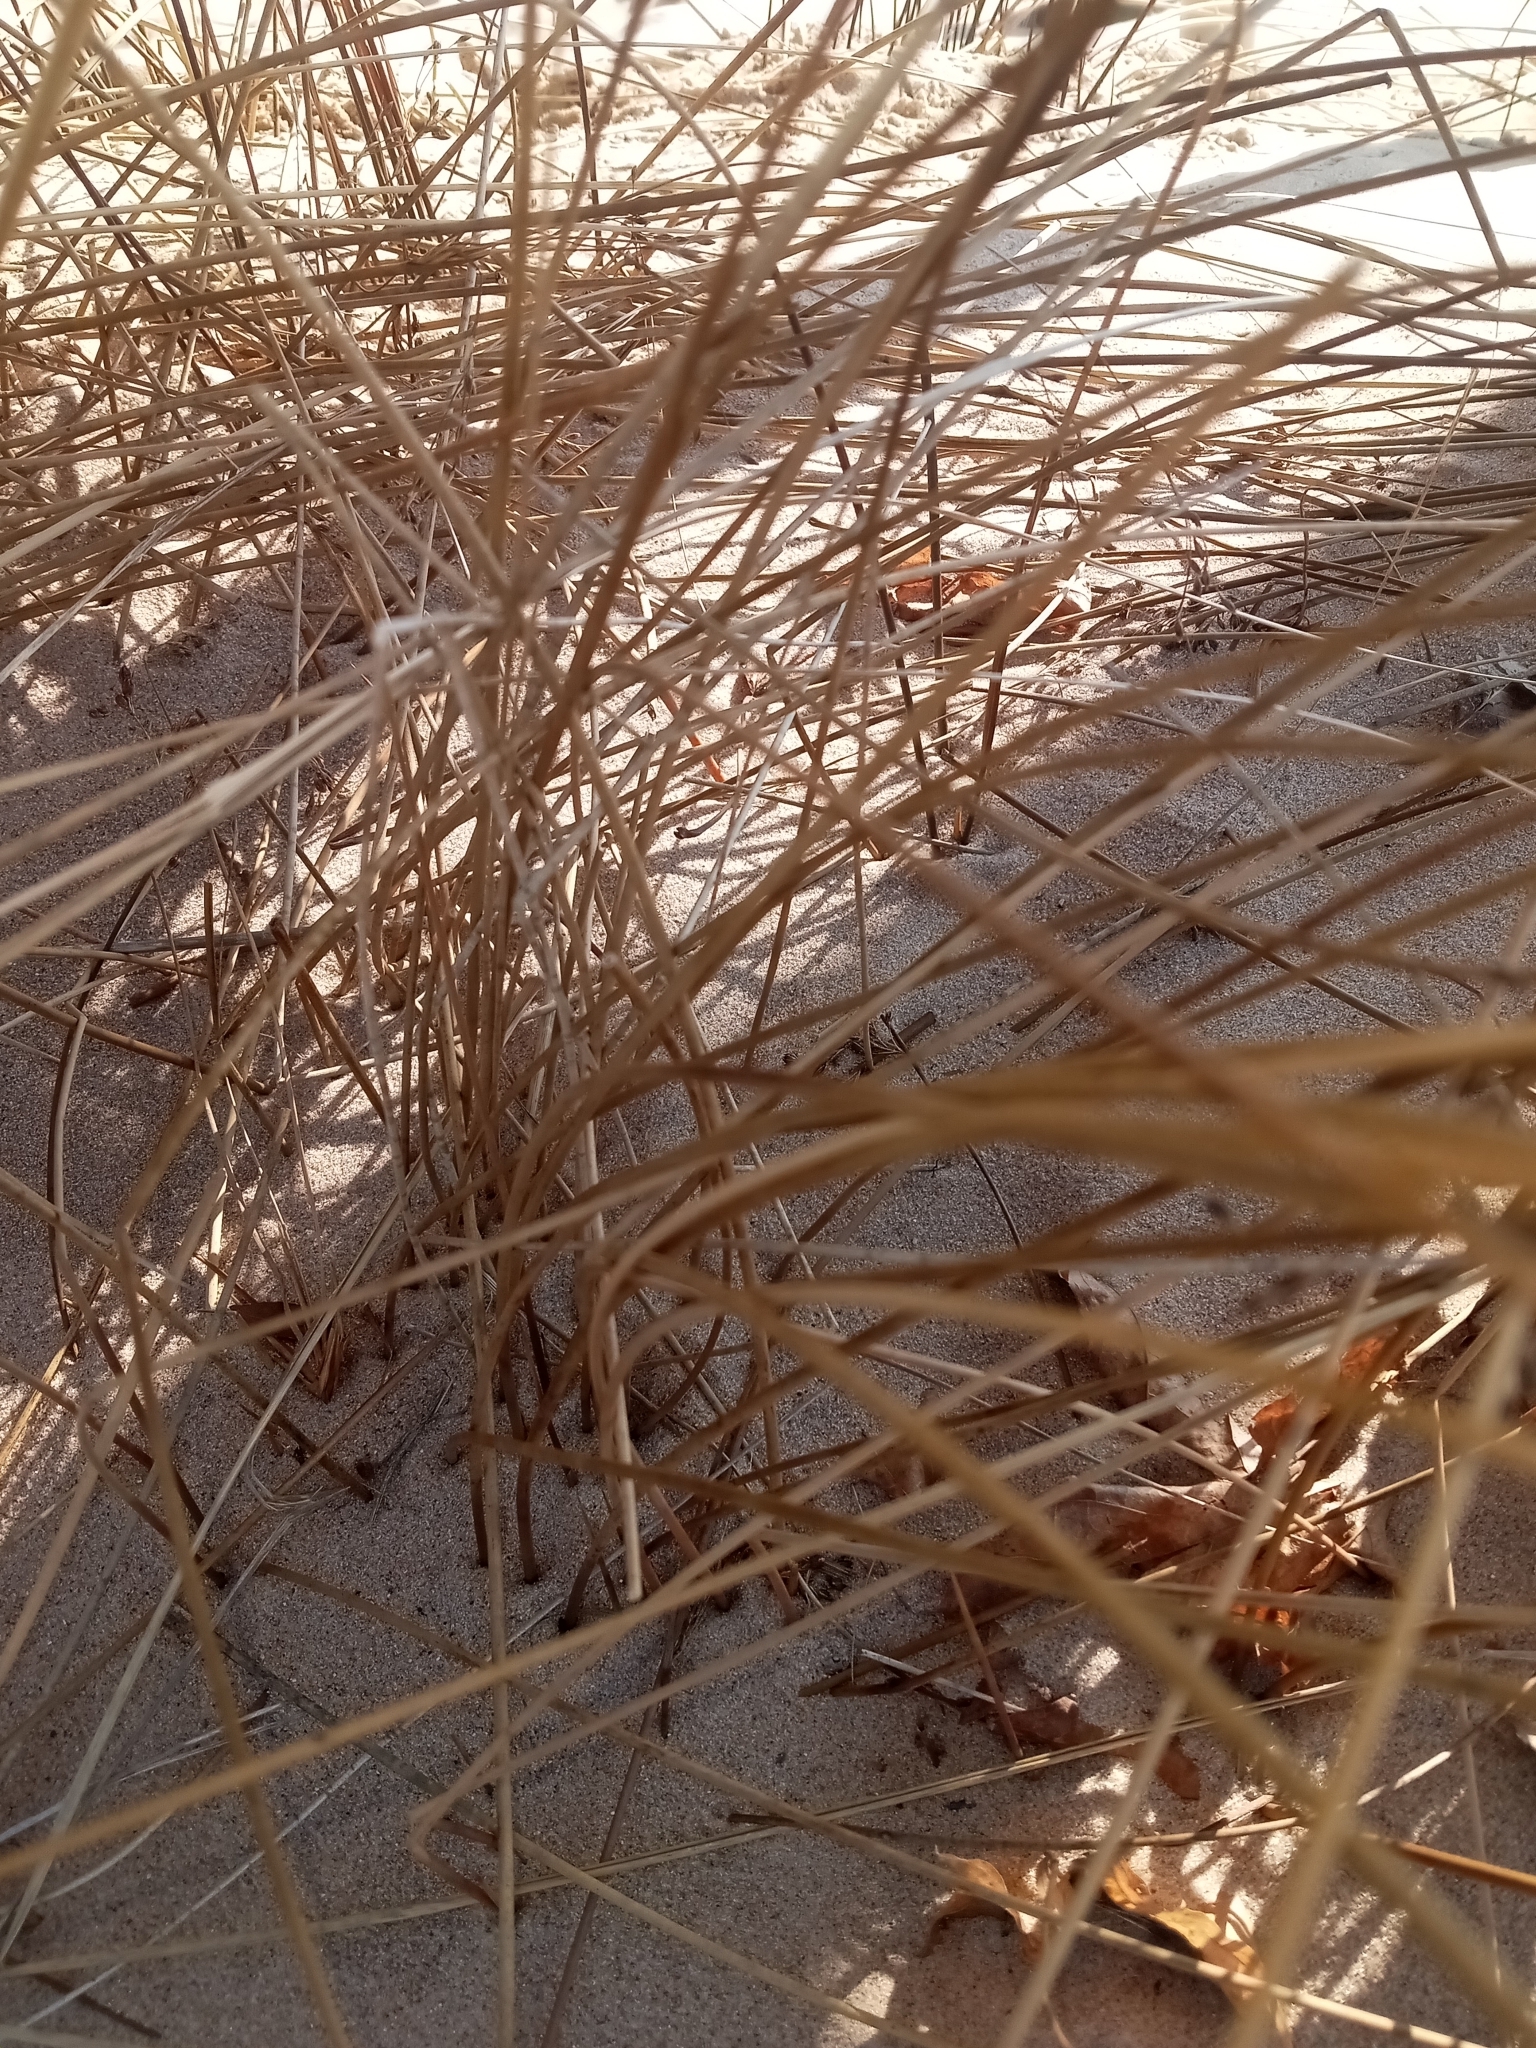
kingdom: Plantae
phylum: Tracheophyta
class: Liliopsida
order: Poales
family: Juncaceae
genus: Juncus
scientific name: Juncus balticus
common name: Baltic rush
